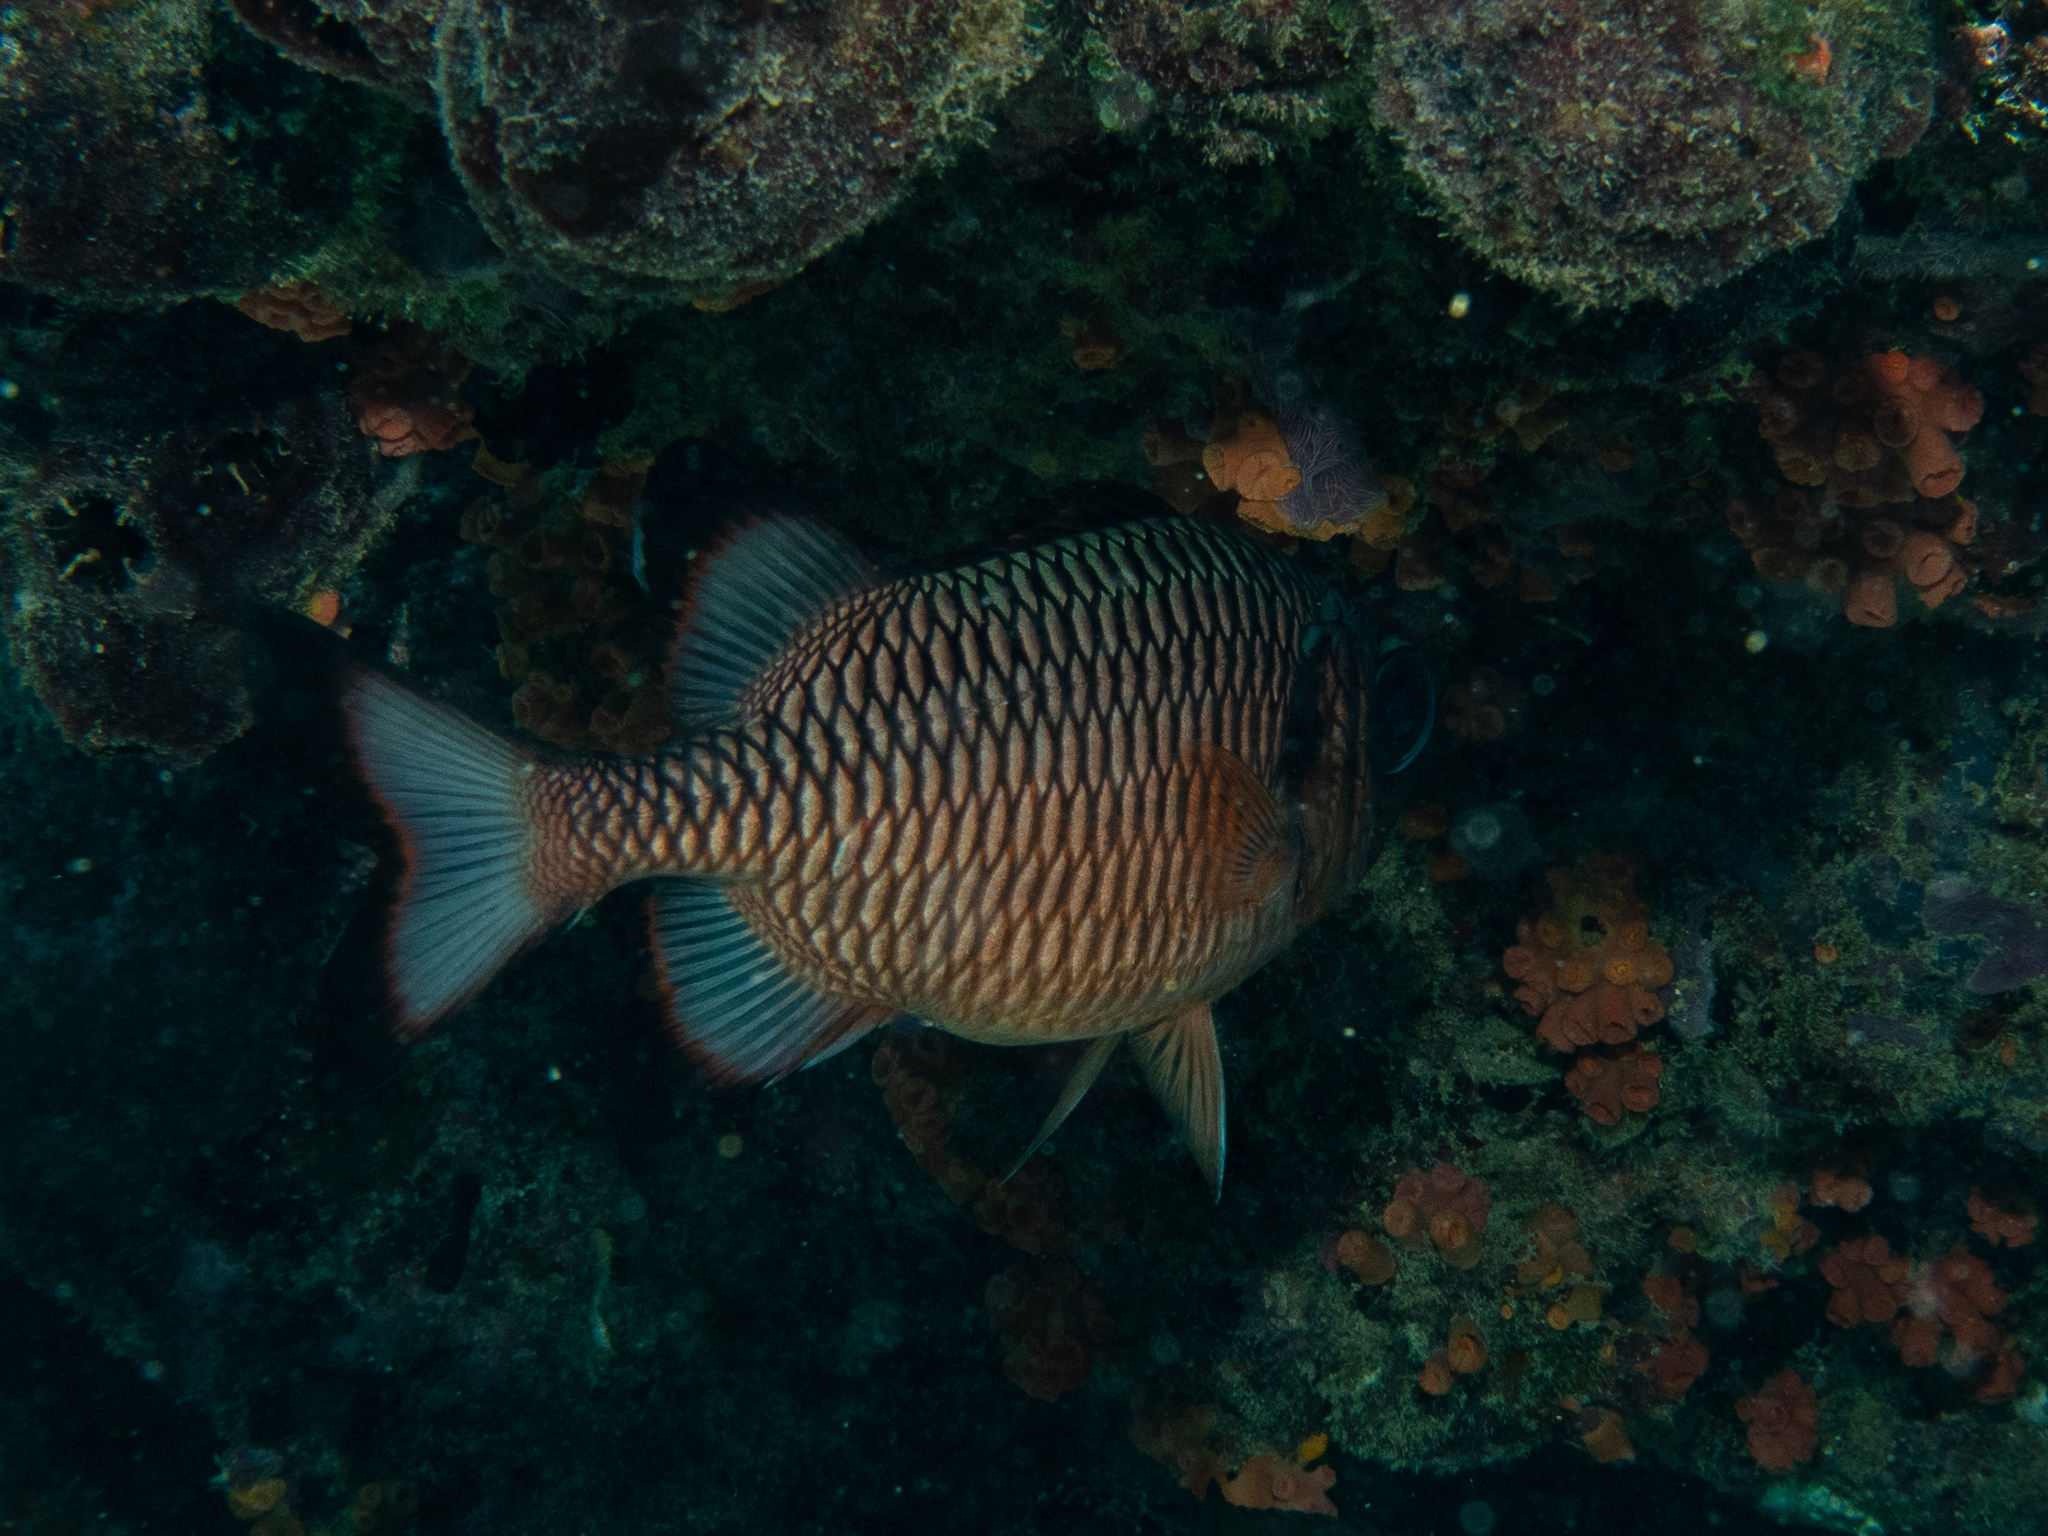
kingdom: Animalia
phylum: Chordata
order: Beryciformes
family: Holocentridae
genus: Myripristis
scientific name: Myripristis adusta
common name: Blackfin soldierfish
